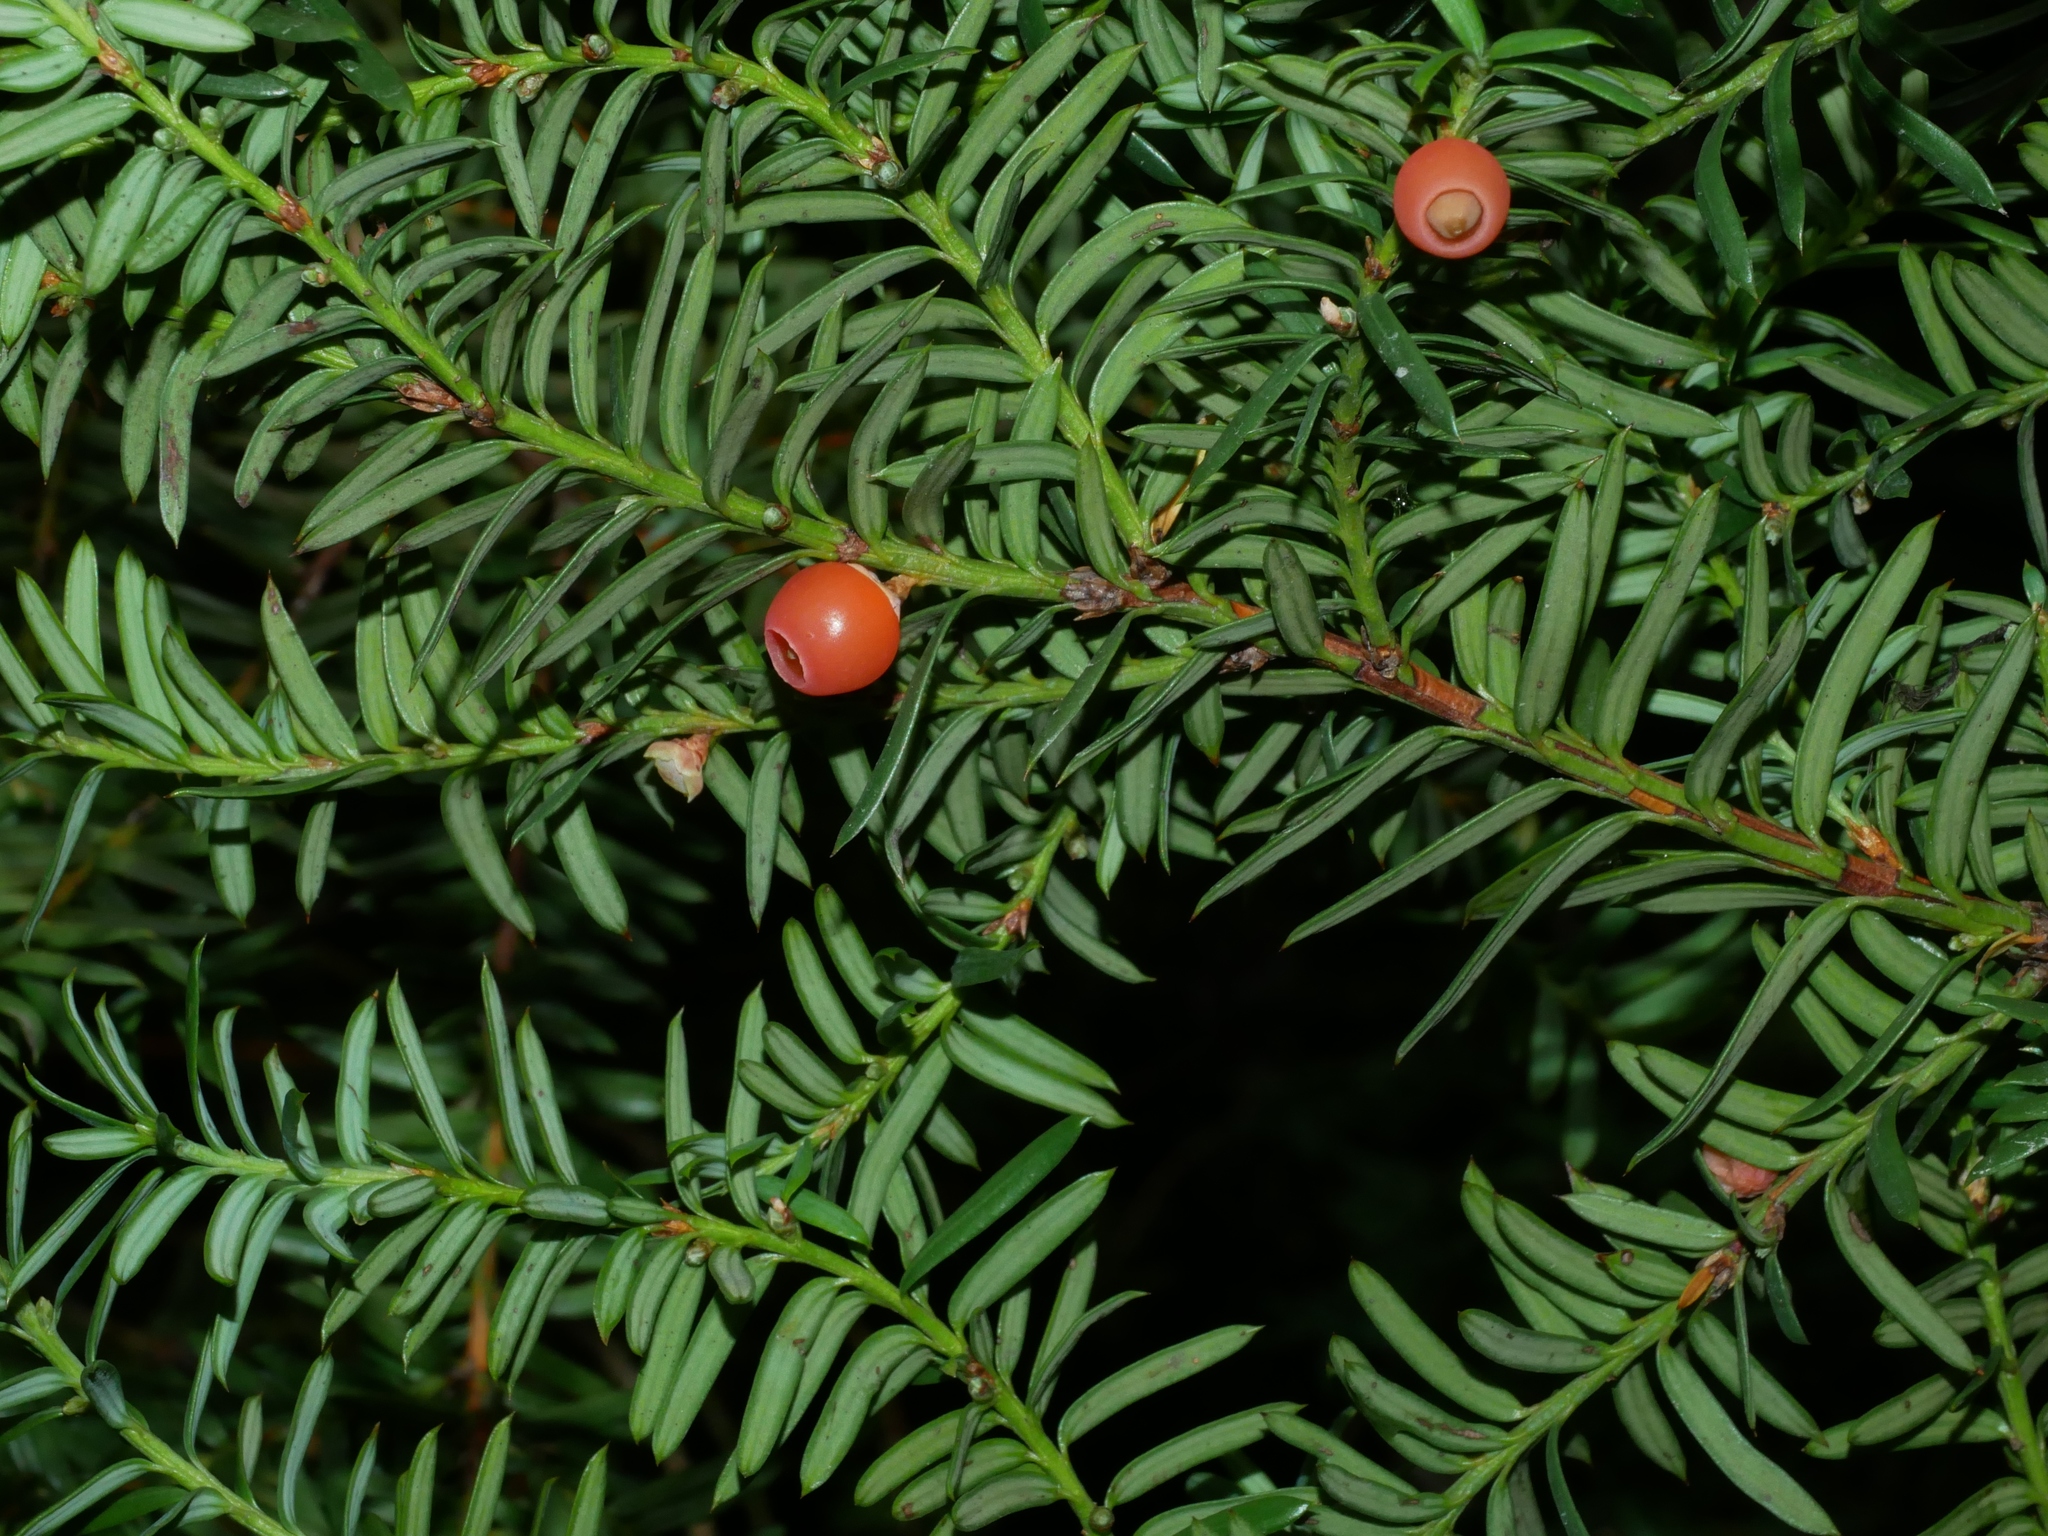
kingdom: Plantae
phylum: Tracheophyta
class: Pinopsida
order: Pinales
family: Taxaceae
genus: Taxus
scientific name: Taxus brevifolia
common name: Pacific yew
